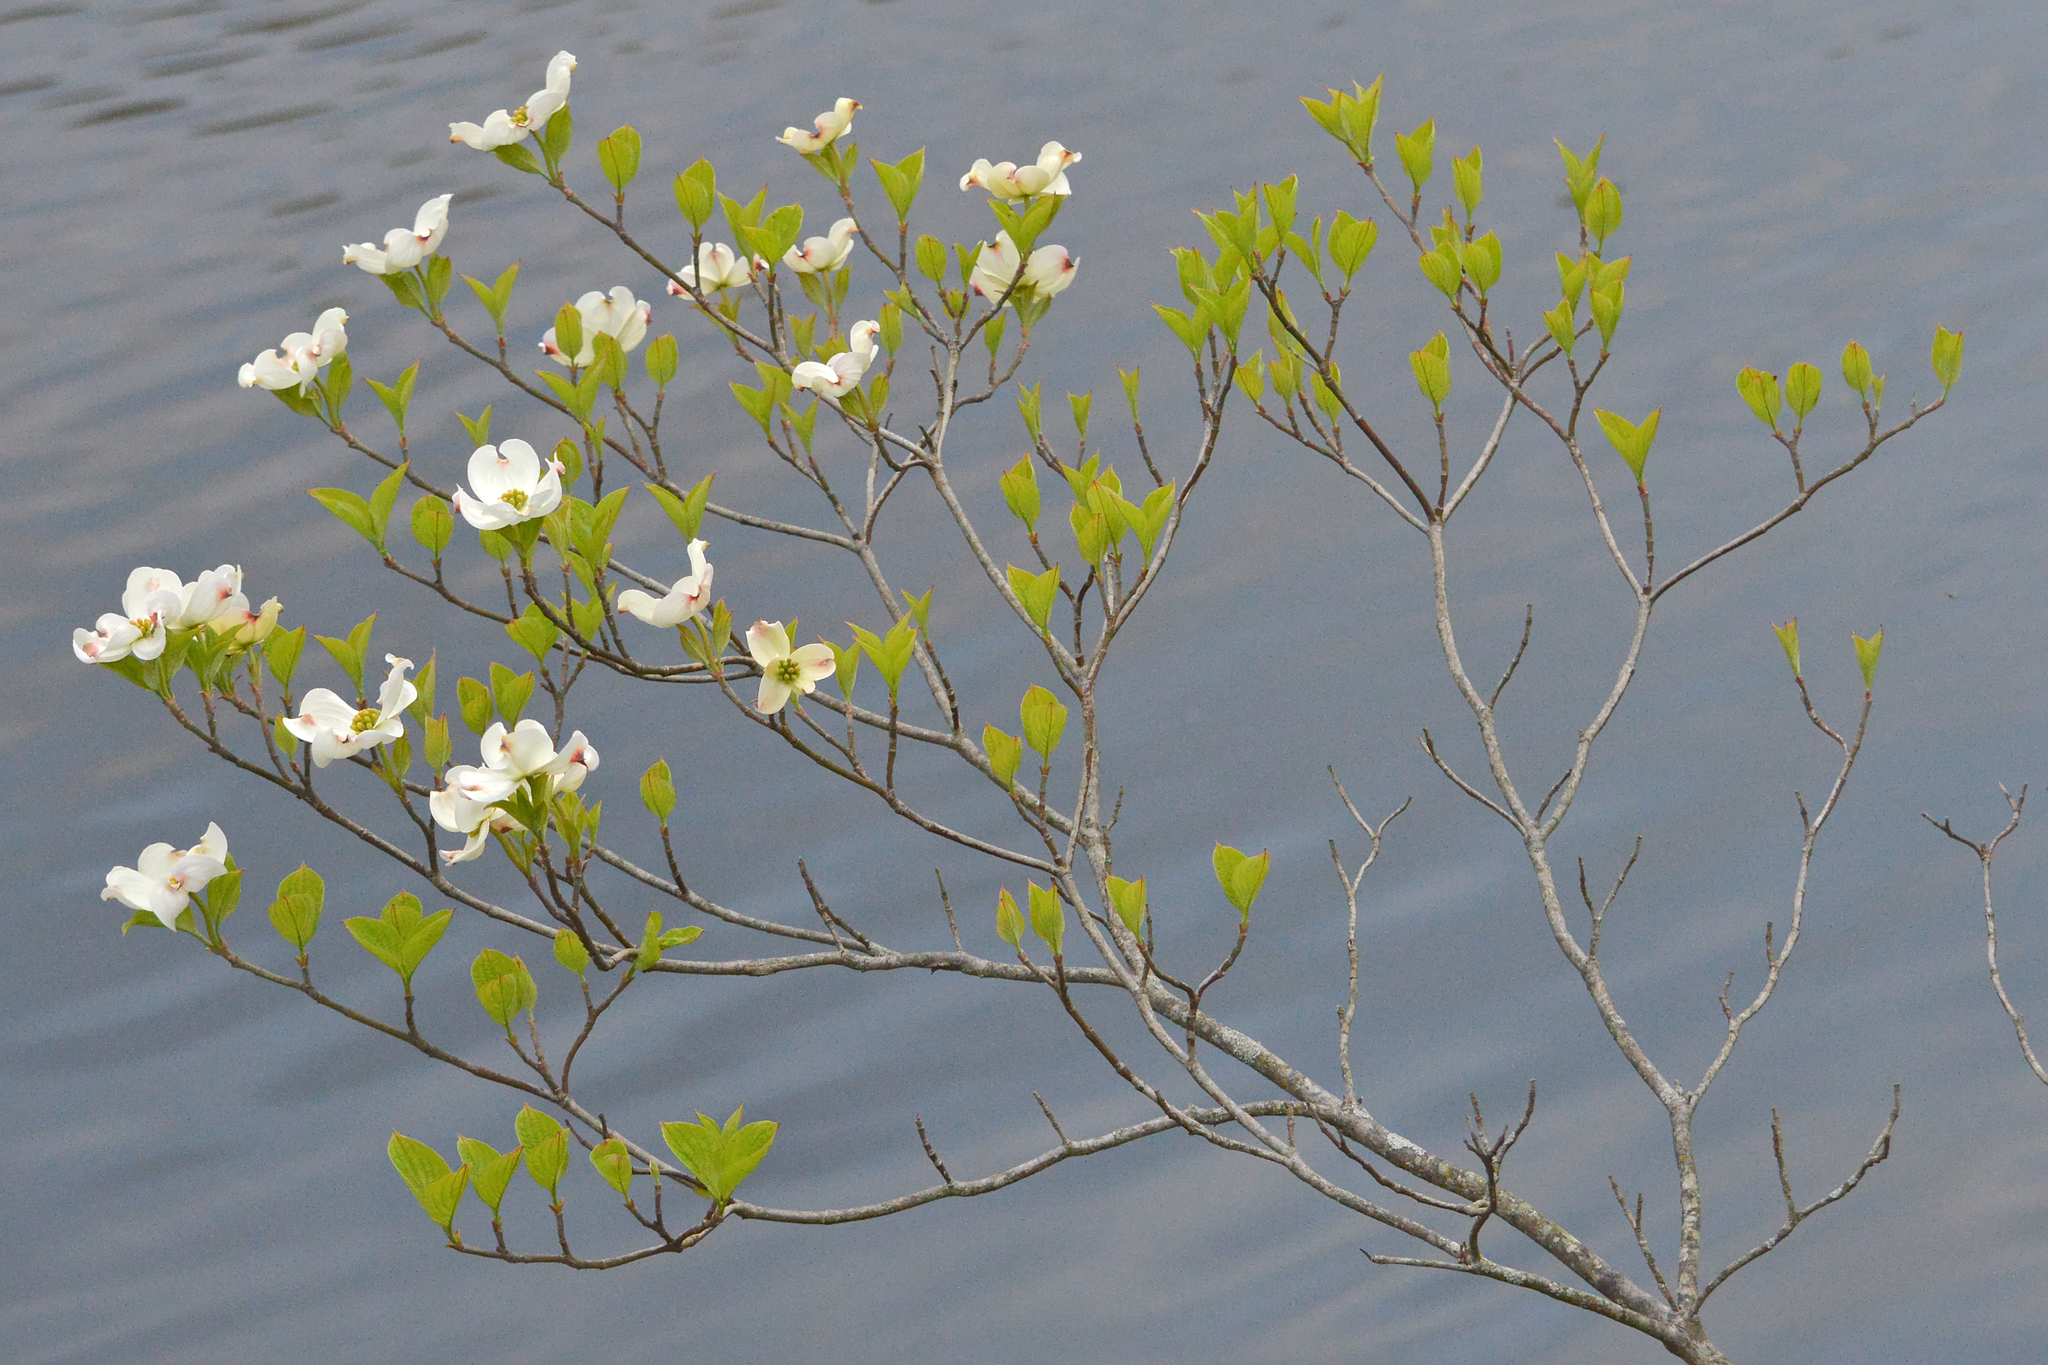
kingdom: Plantae
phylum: Tracheophyta
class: Magnoliopsida
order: Cornales
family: Cornaceae
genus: Cornus
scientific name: Cornus florida
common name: Flowering dogwood
